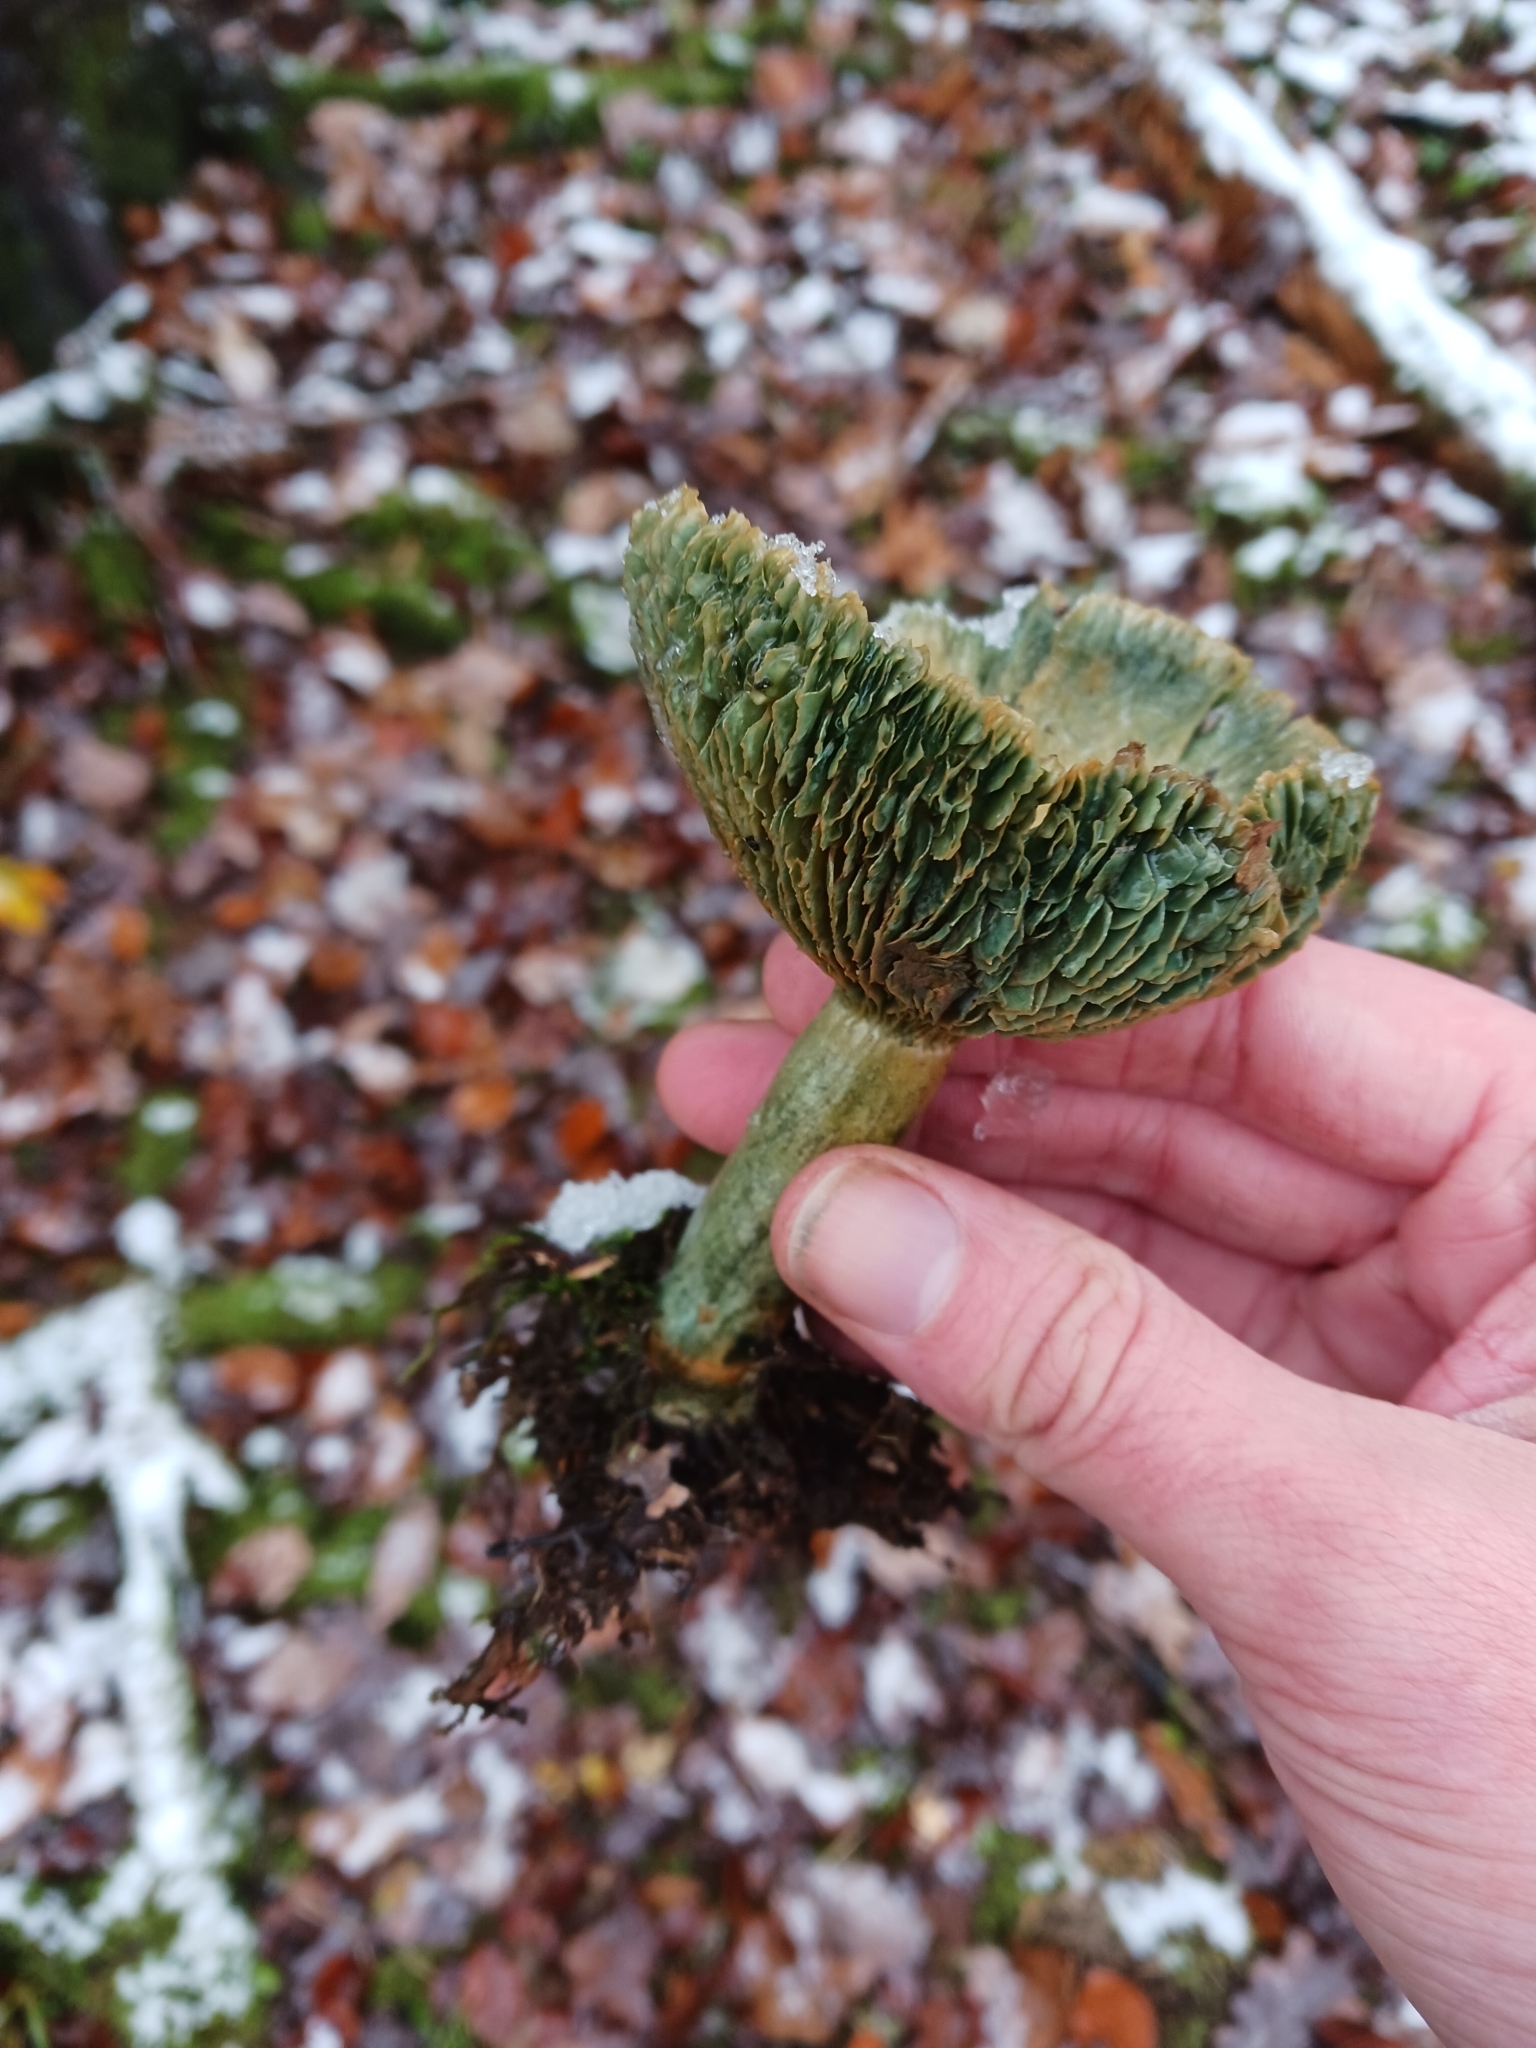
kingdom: Fungi
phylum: Basidiomycota
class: Agaricomycetes
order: Russulales
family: Russulaceae
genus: Lactarius
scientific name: Lactarius deterrimus
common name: False saffron milkcap
